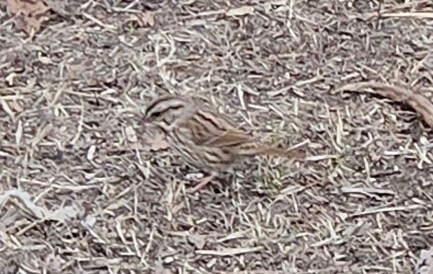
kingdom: Animalia
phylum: Chordata
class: Aves
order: Passeriformes
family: Passerellidae
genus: Melospiza
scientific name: Melospiza melodia
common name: Song sparrow
